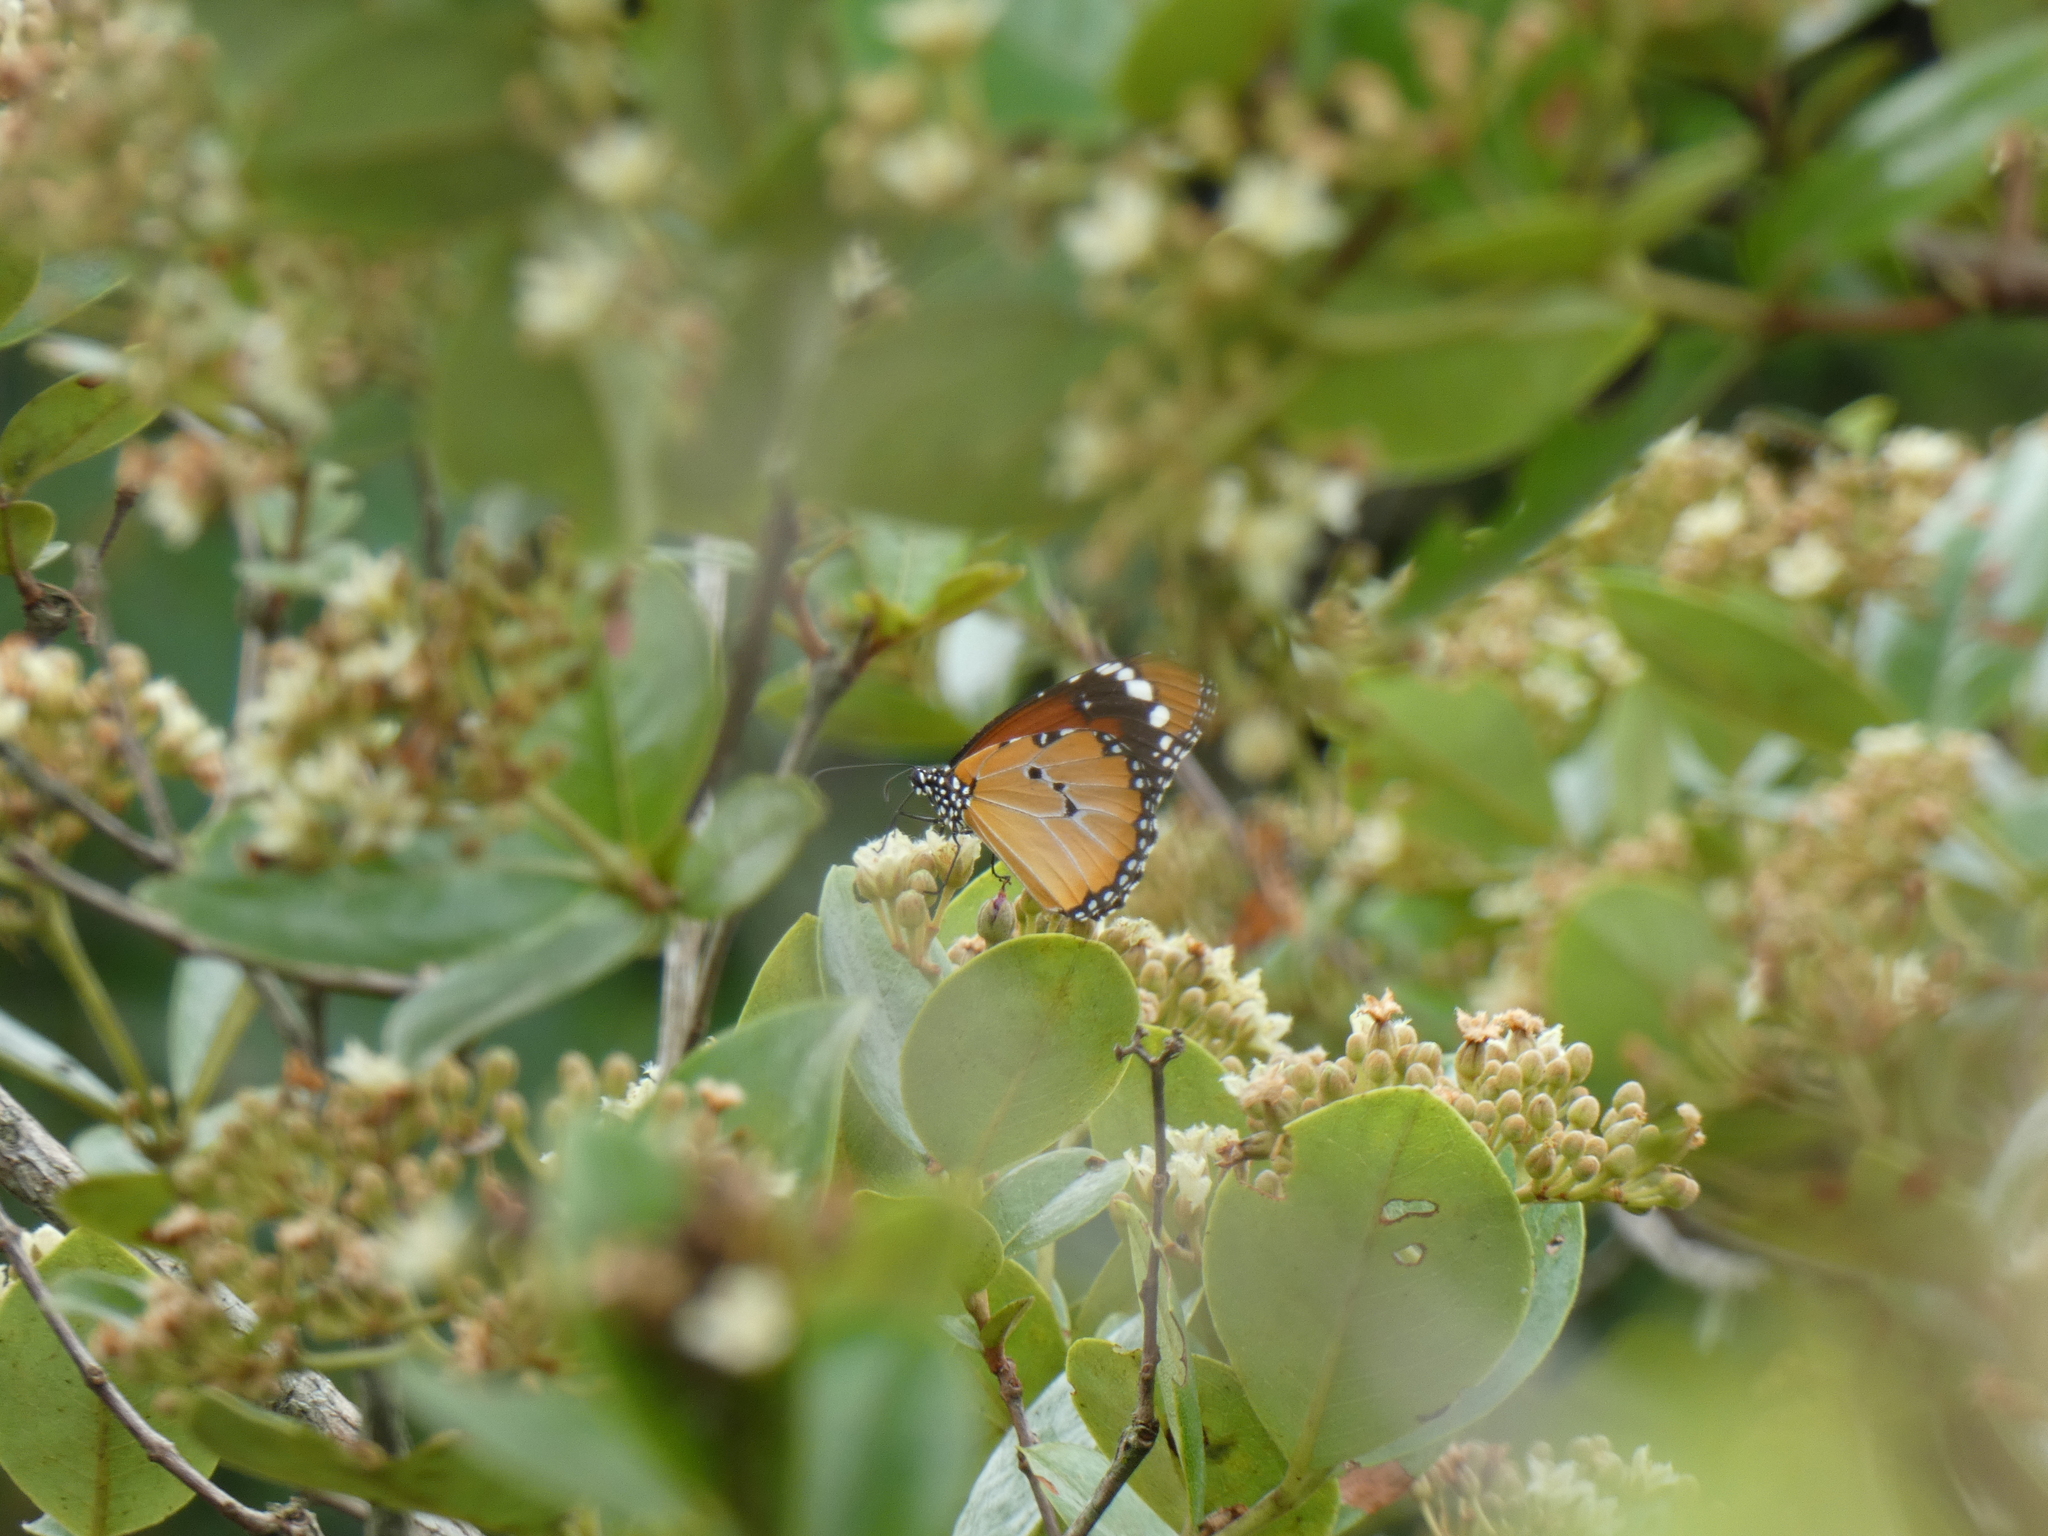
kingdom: Animalia
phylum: Arthropoda
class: Insecta
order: Lepidoptera
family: Nymphalidae
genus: Danaus
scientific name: Danaus chrysippus
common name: Plain tiger
